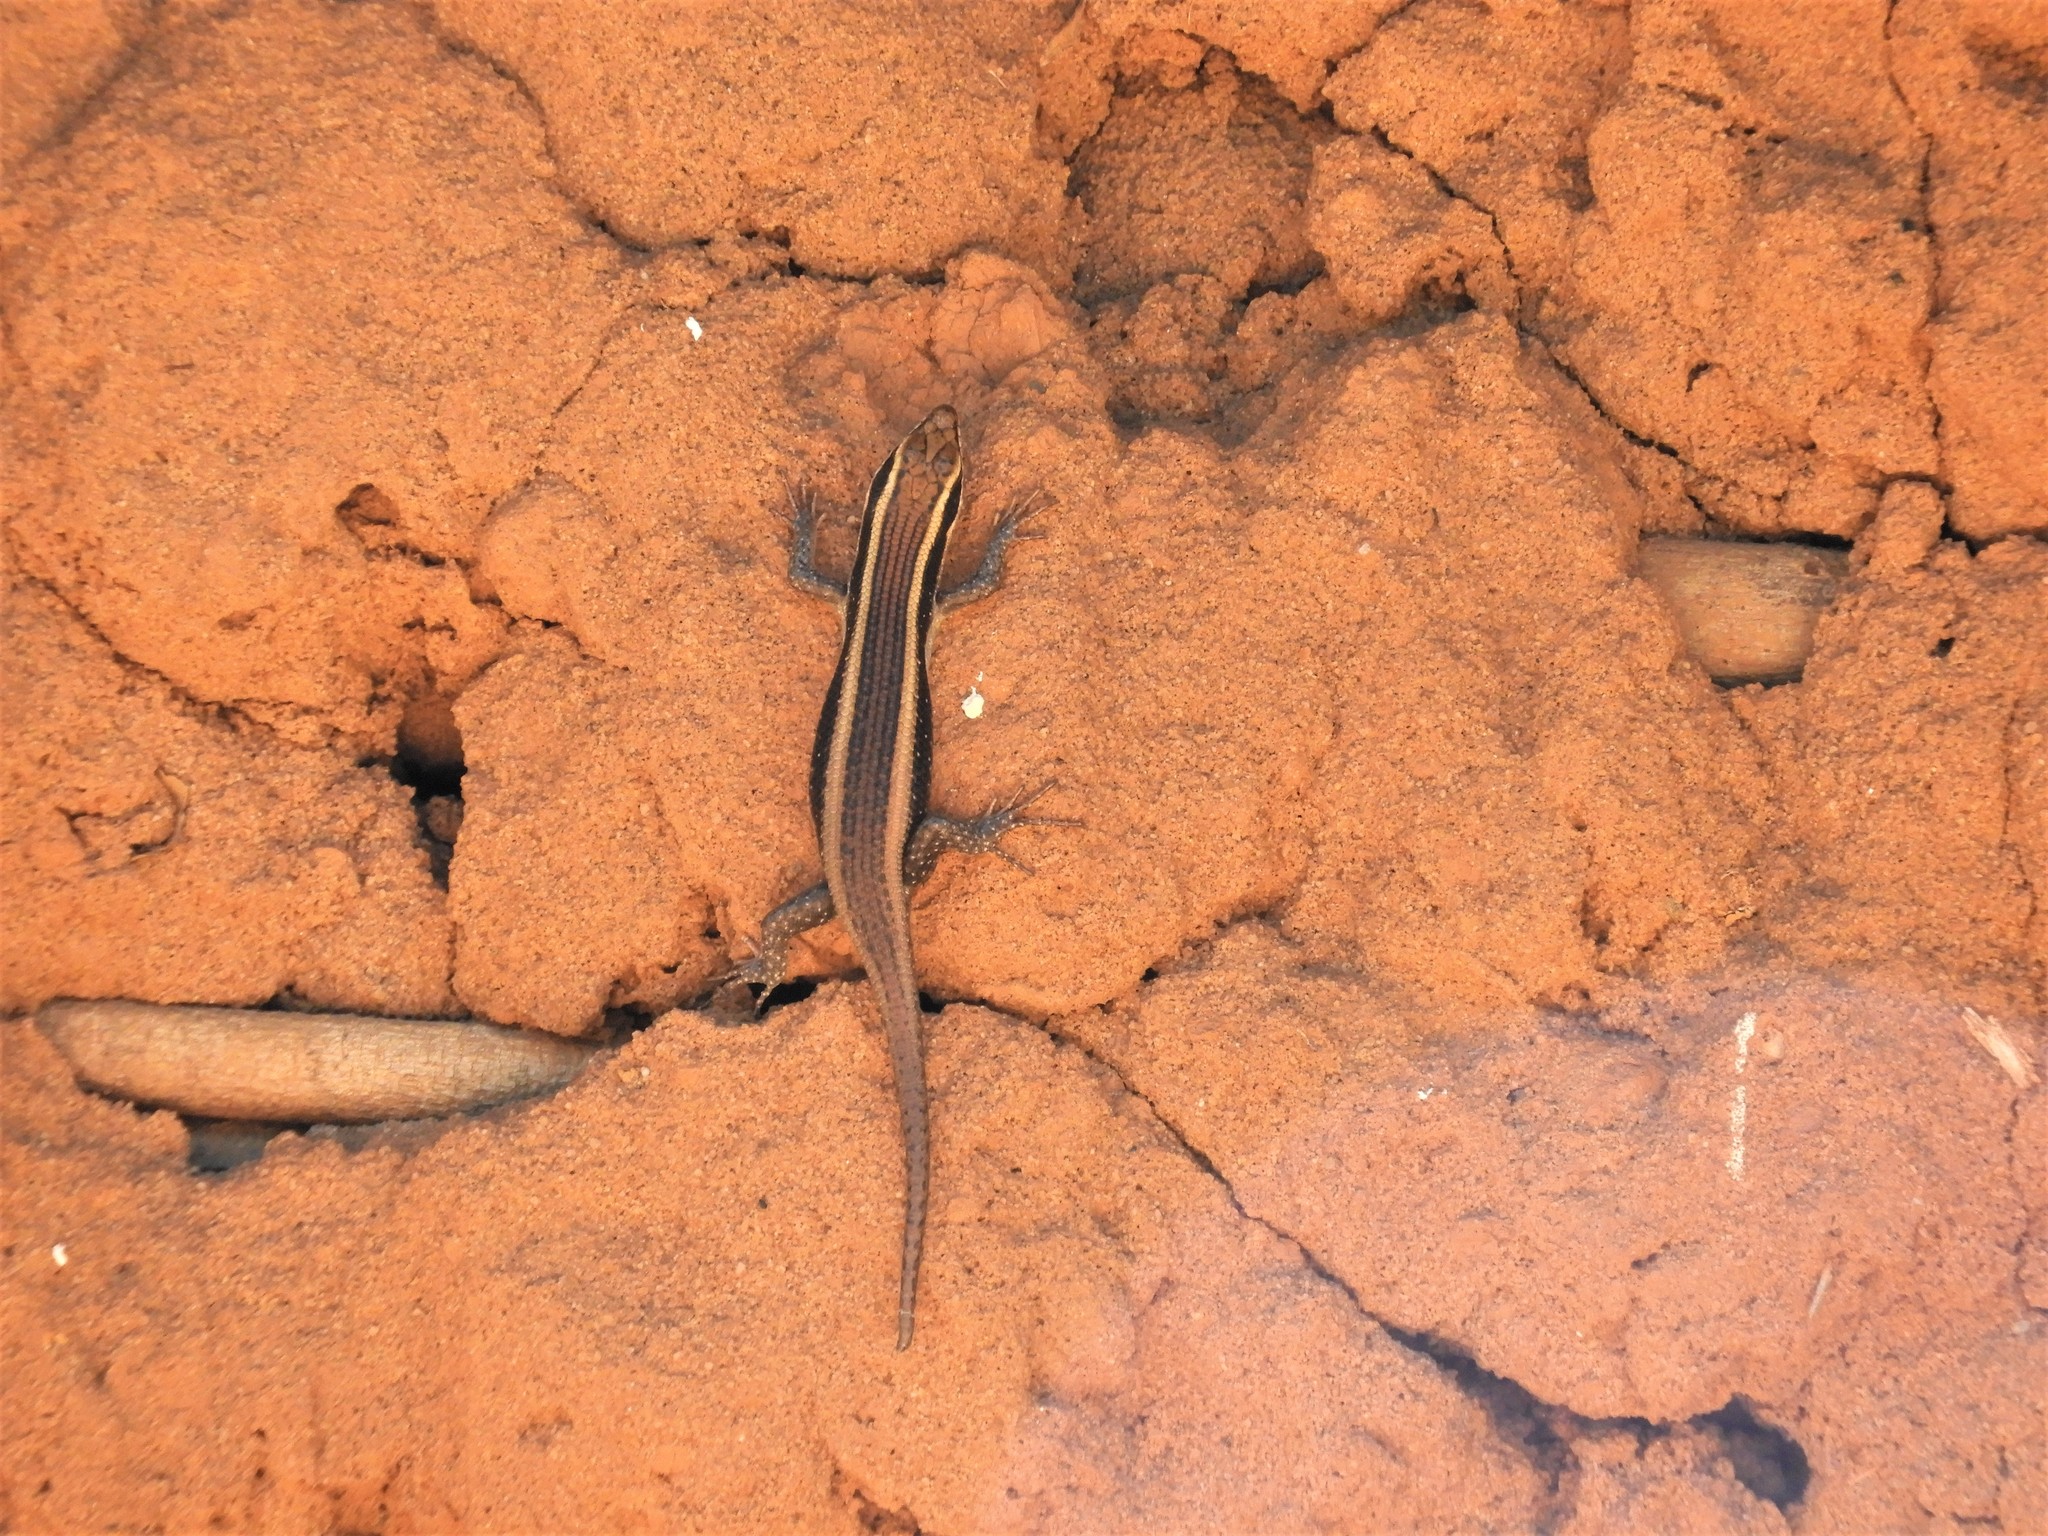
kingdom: Animalia
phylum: Chordata
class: Squamata
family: Scincidae
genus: Trachylepis
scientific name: Trachylepis striata
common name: African striped mabuya
